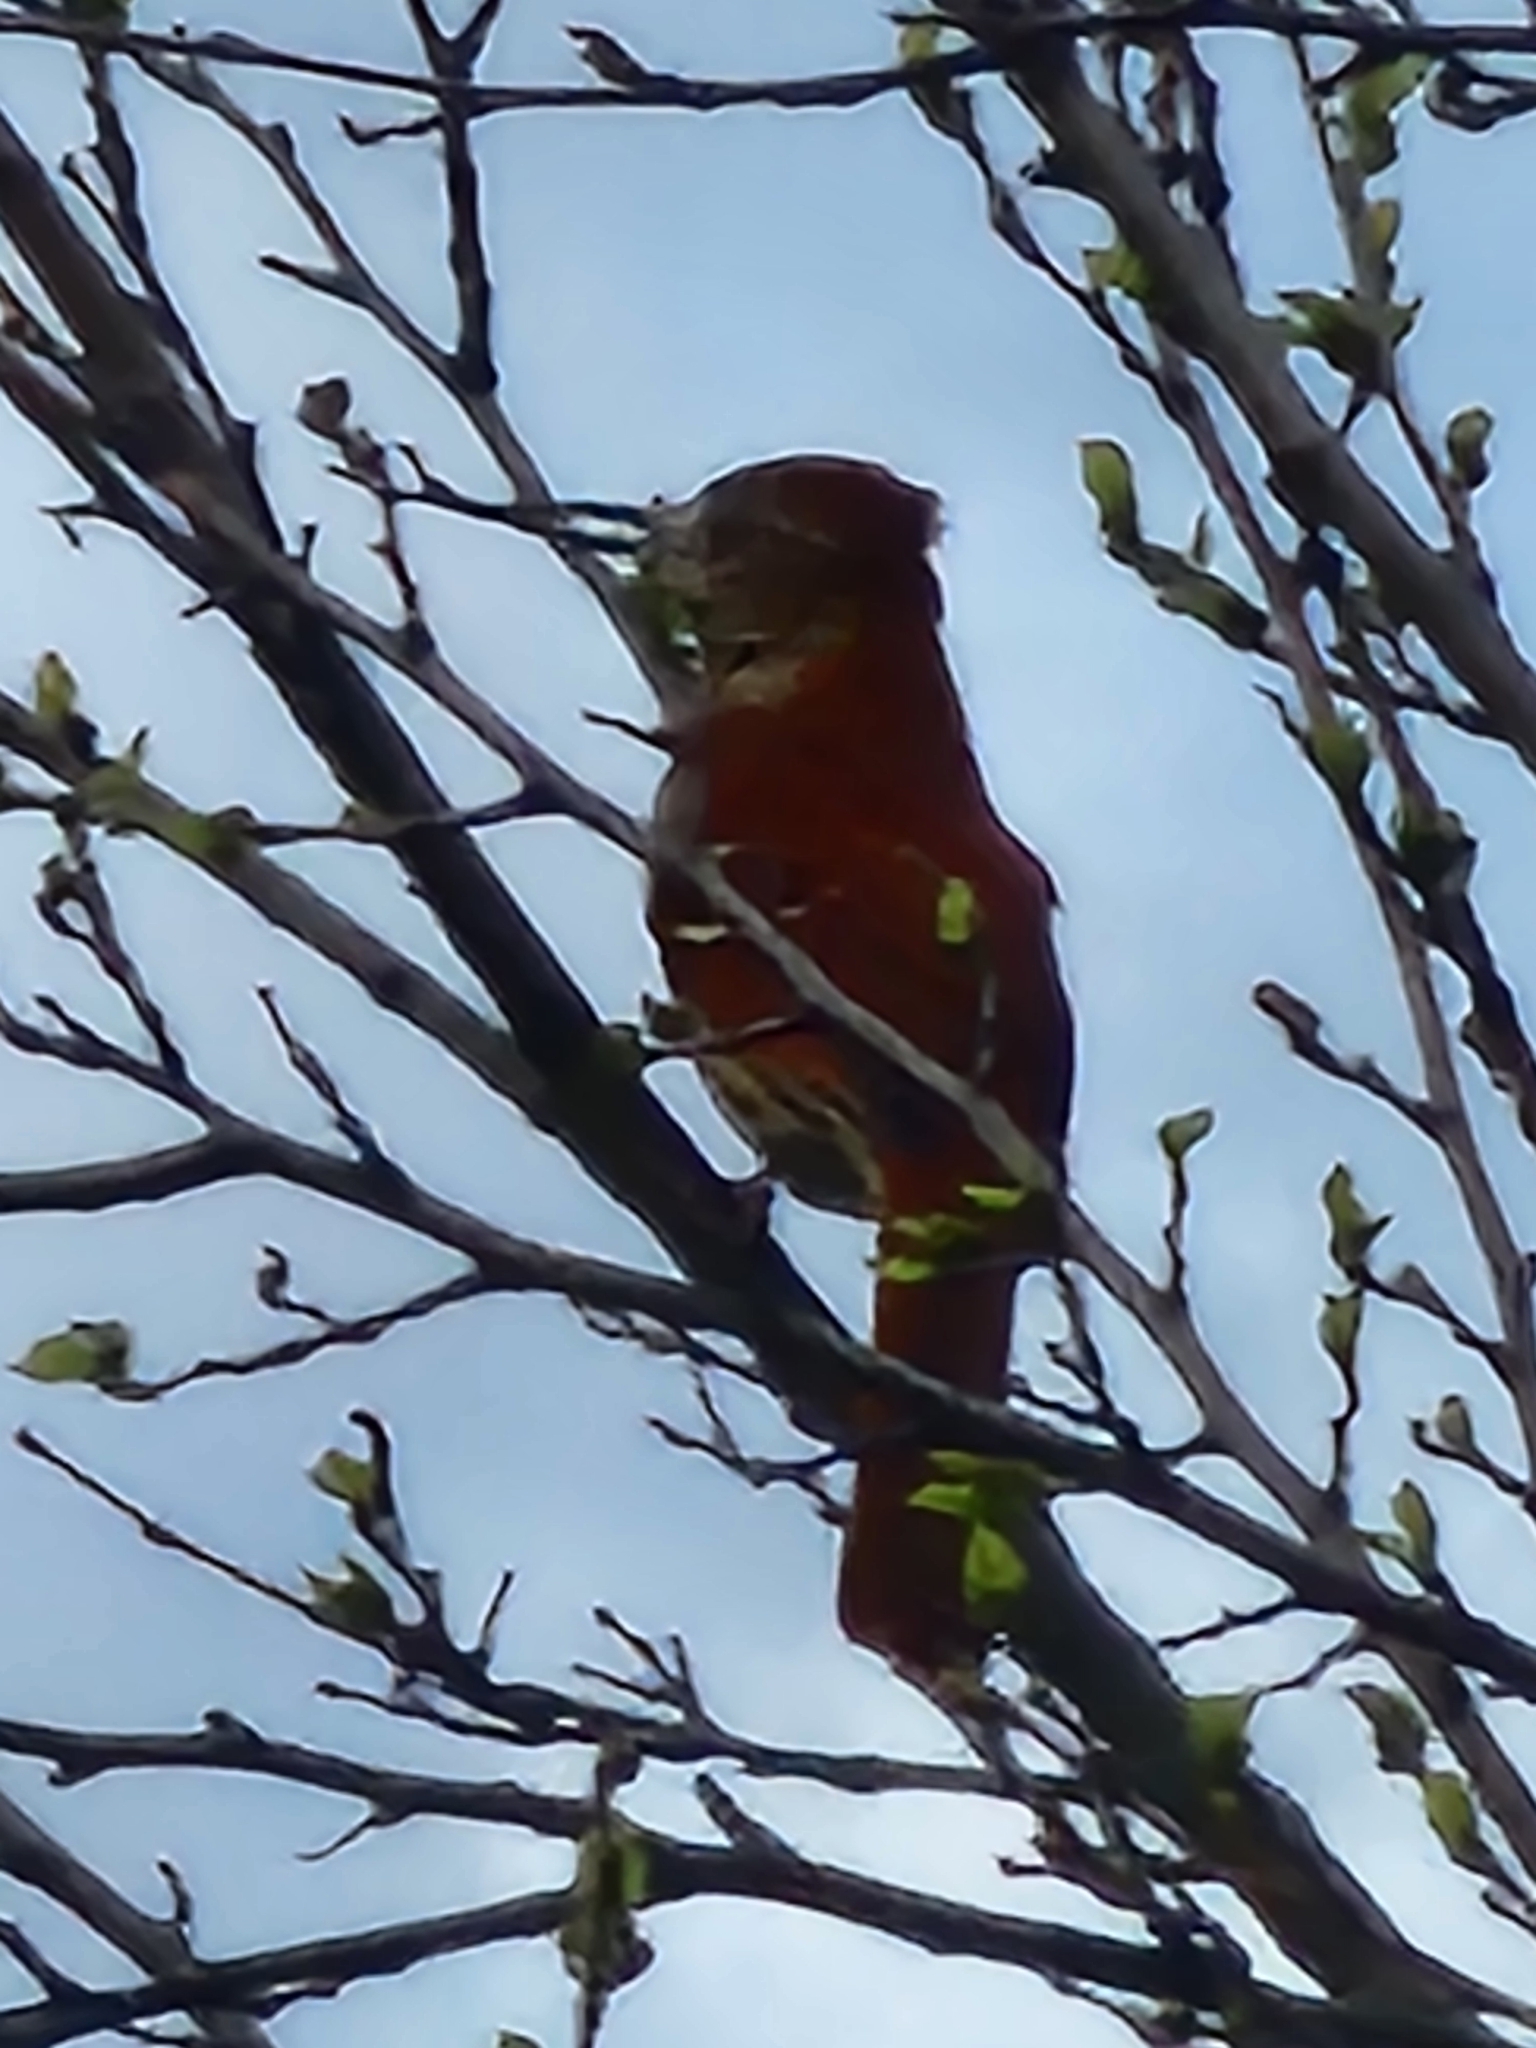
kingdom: Animalia
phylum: Chordata
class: Aves
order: Passeriformes
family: Mimidae
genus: Toxostoma
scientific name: Toxostoma rufum
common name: Brown thrasher
